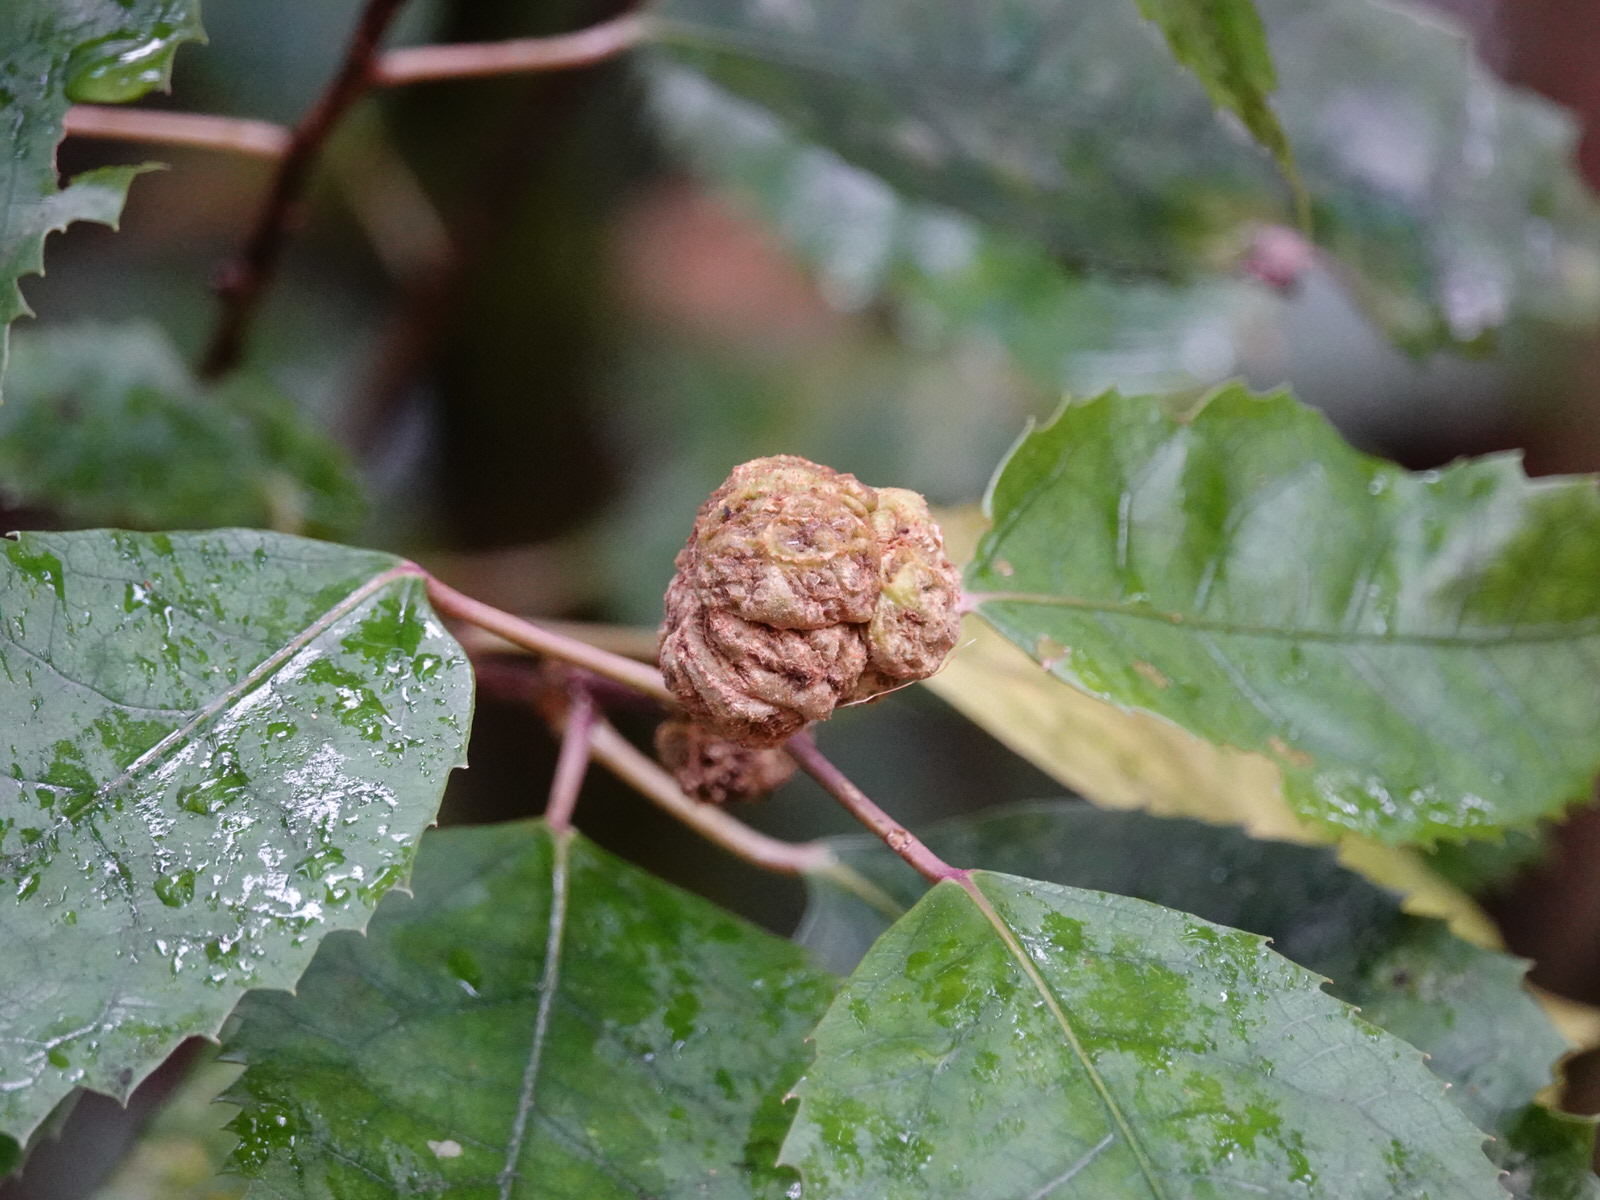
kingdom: Animalia
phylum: Arthropoda
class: Arachnida
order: Trombidiformes
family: Eriophyidae
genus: Eriophyes
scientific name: Eriophyes hoheriae
